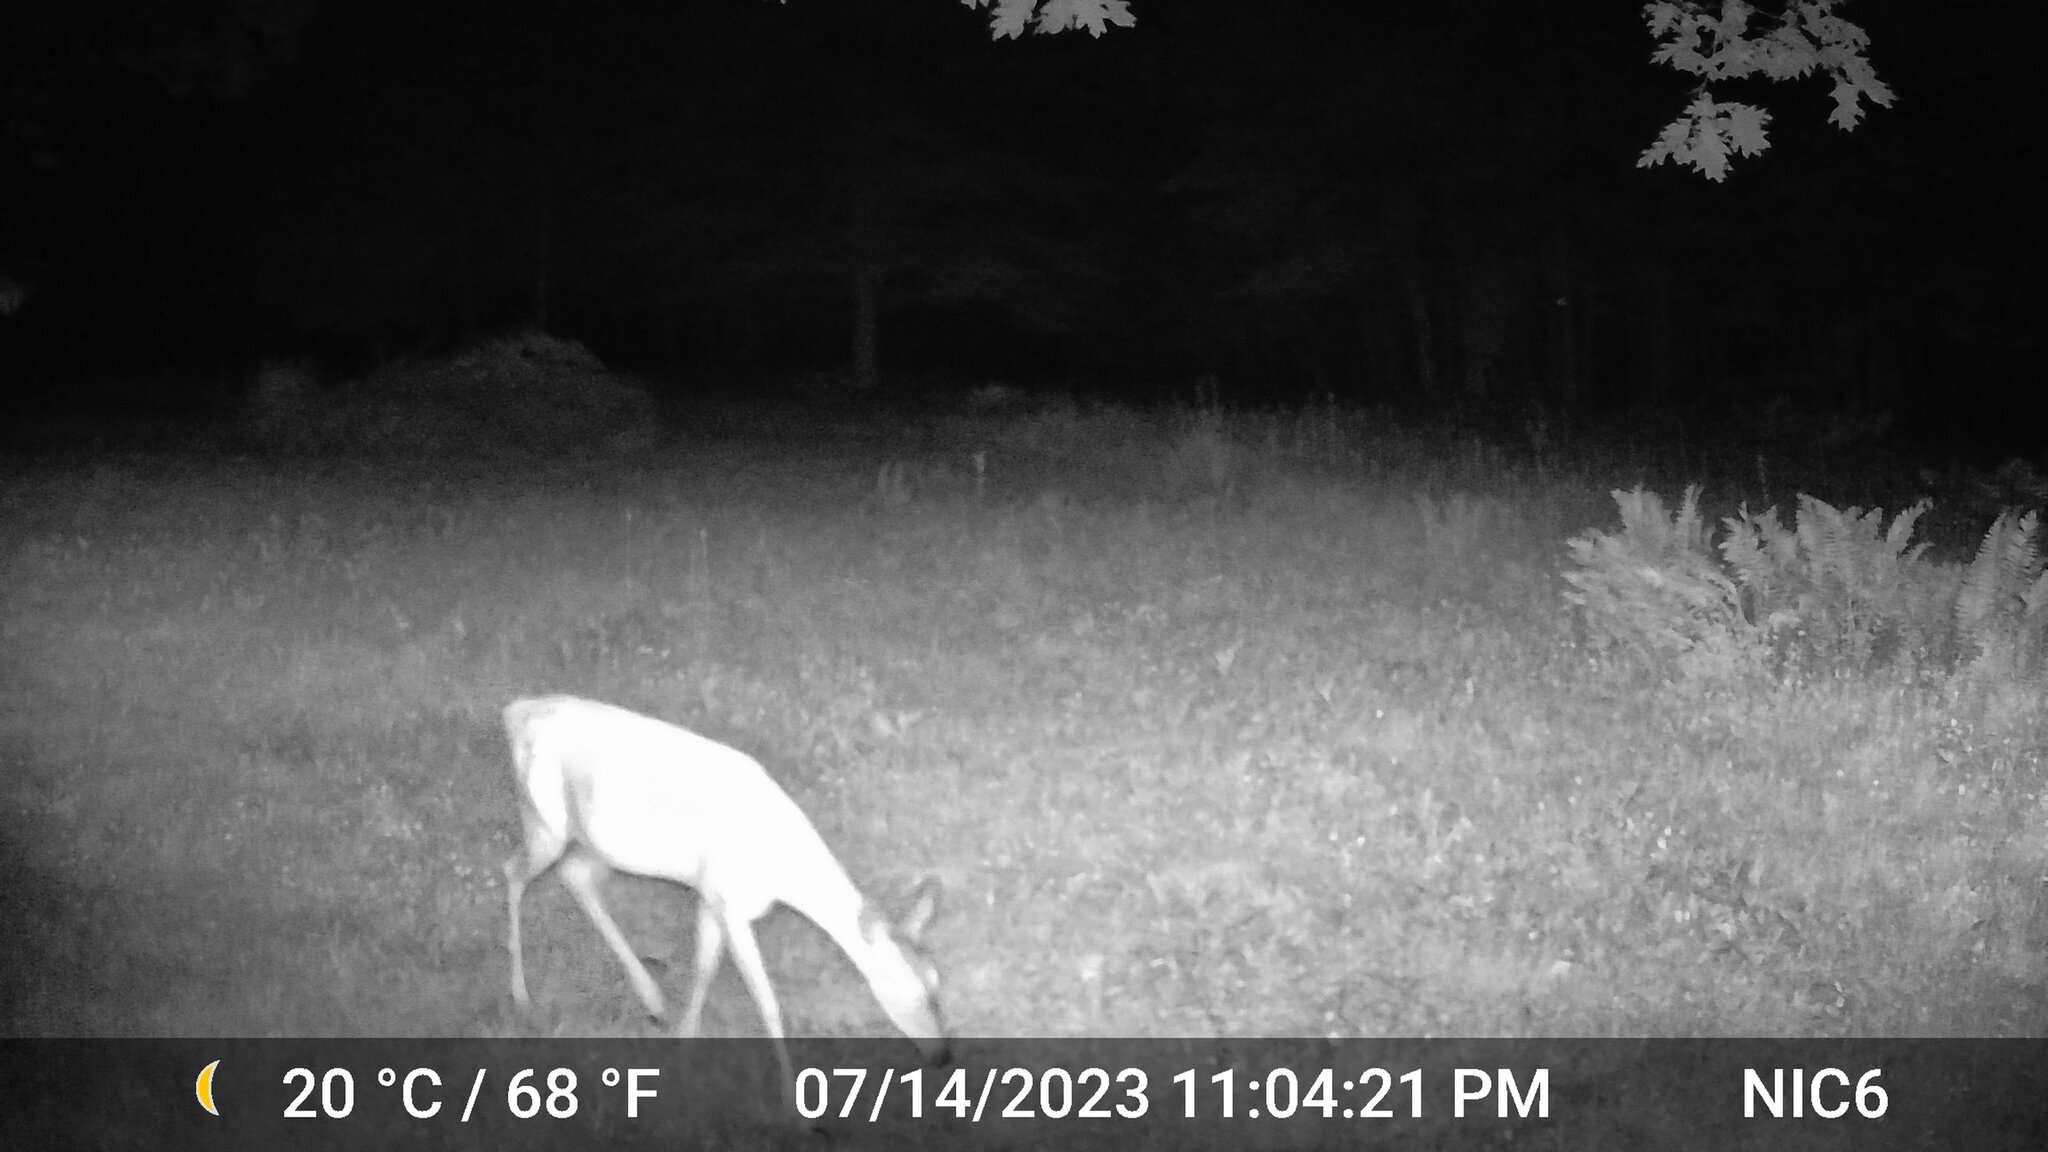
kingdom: Animalia
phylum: Chordata
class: Mammalia
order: Artiodactyla
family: Cervidae
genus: Odocoileus
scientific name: Odocoileus virginianus
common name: White-tailed deer
